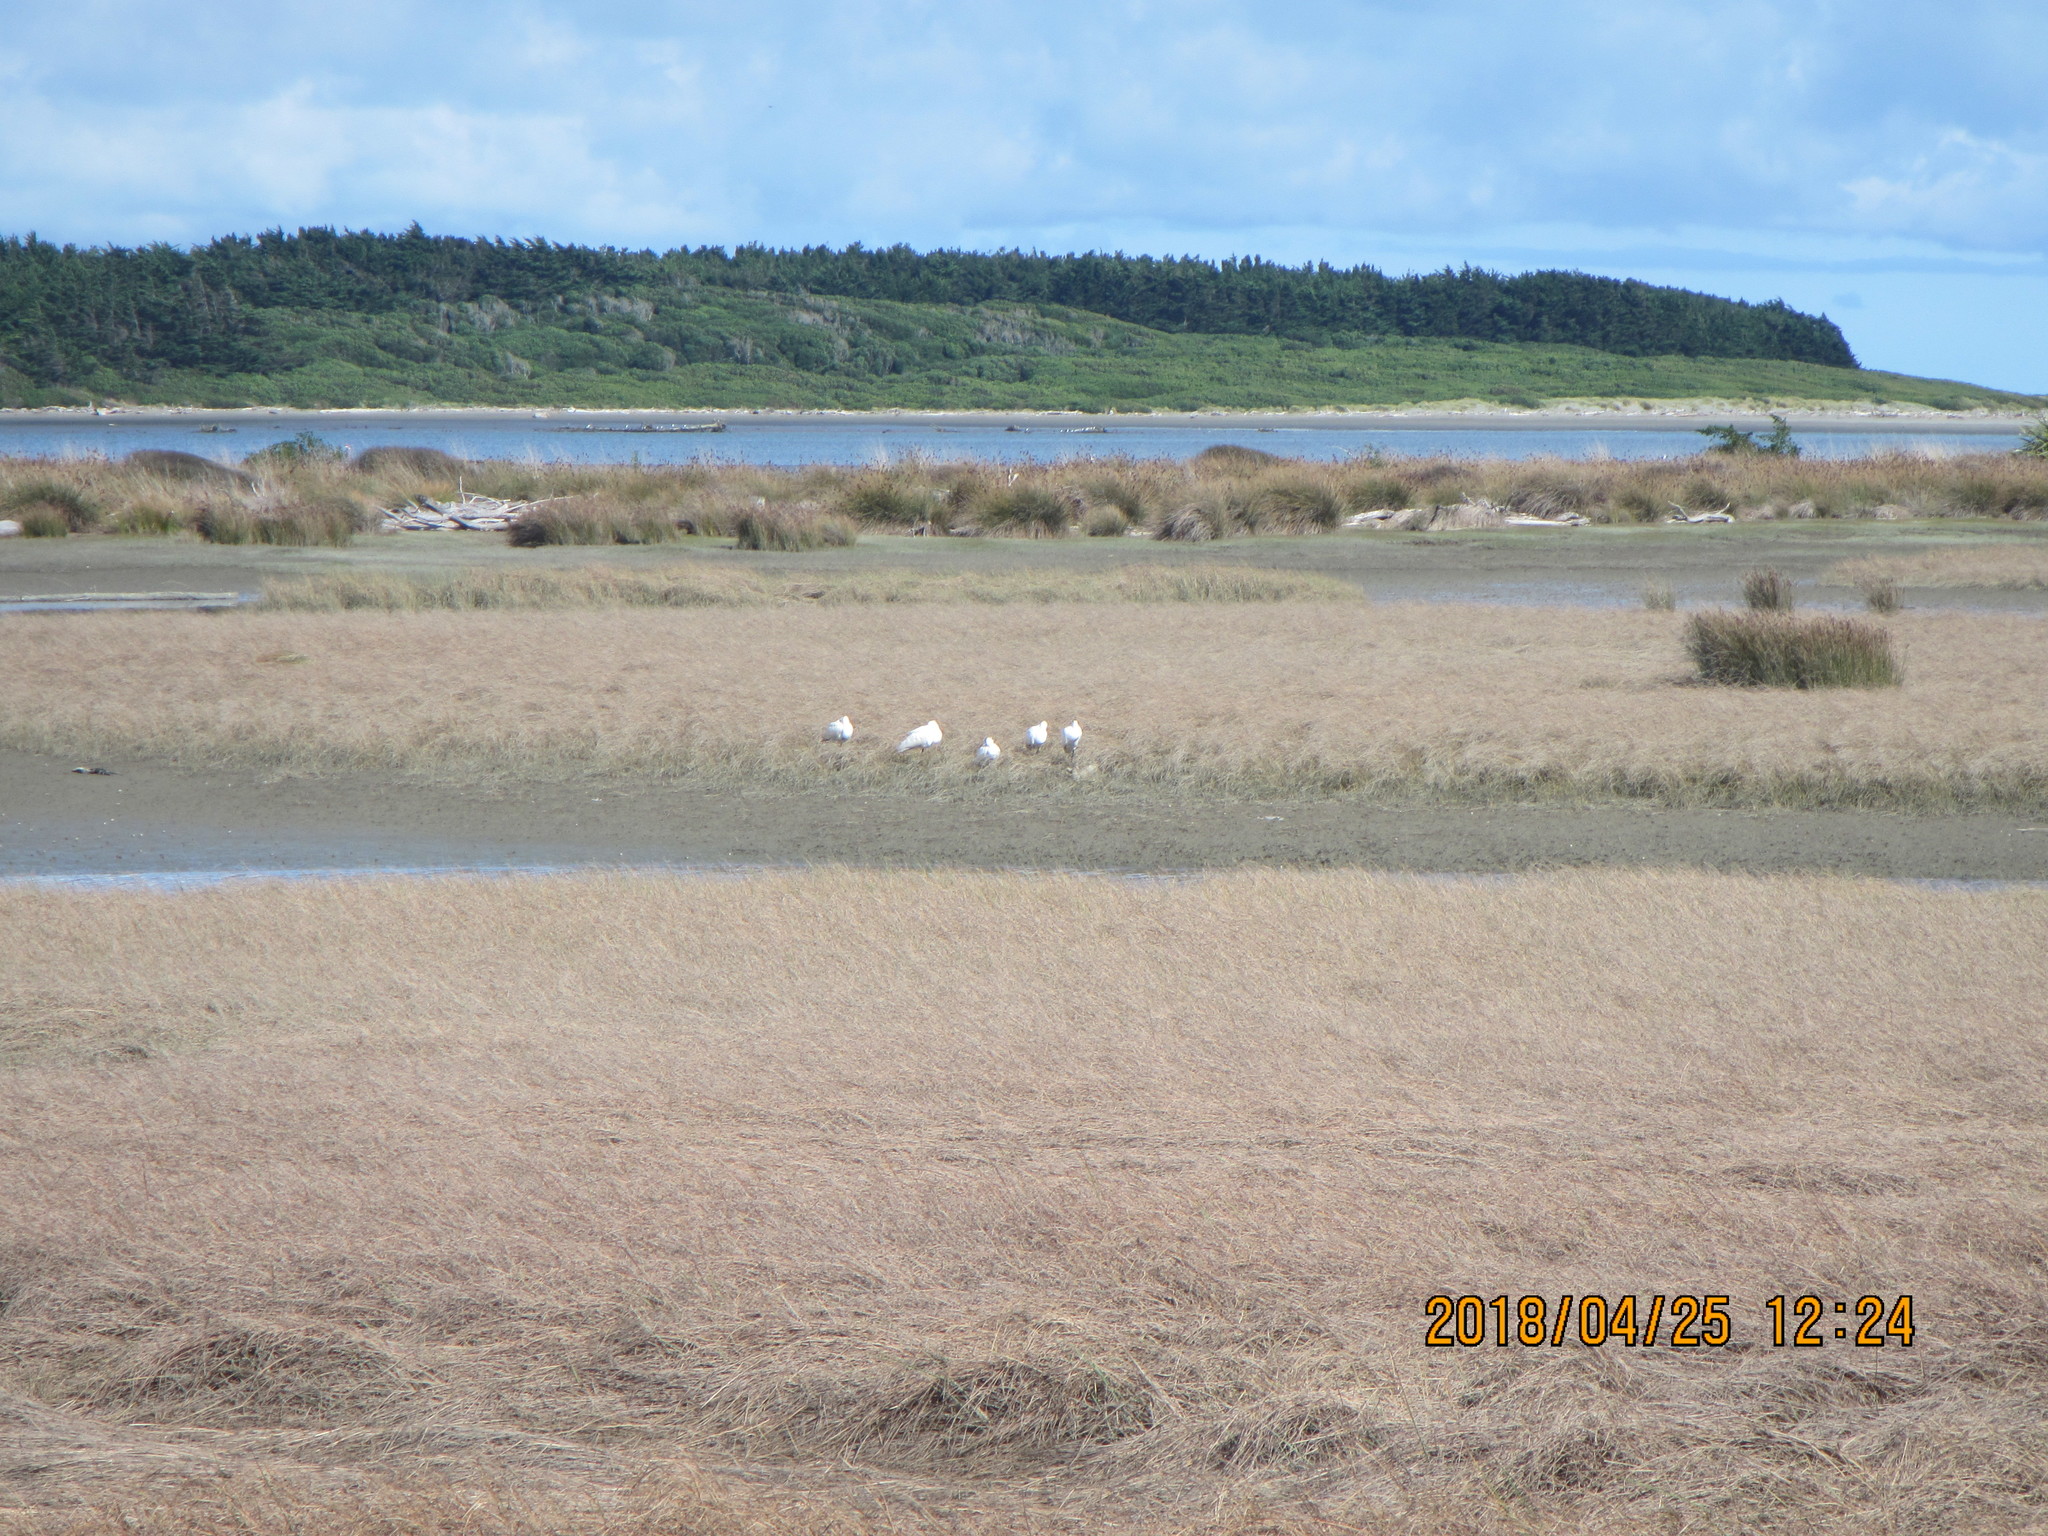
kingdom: Animalia
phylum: Chordata
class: Aves
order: Pelecaniformes
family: Threskiornithidae
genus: Platalea
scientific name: Platalea regia
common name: Royal spoonbill
